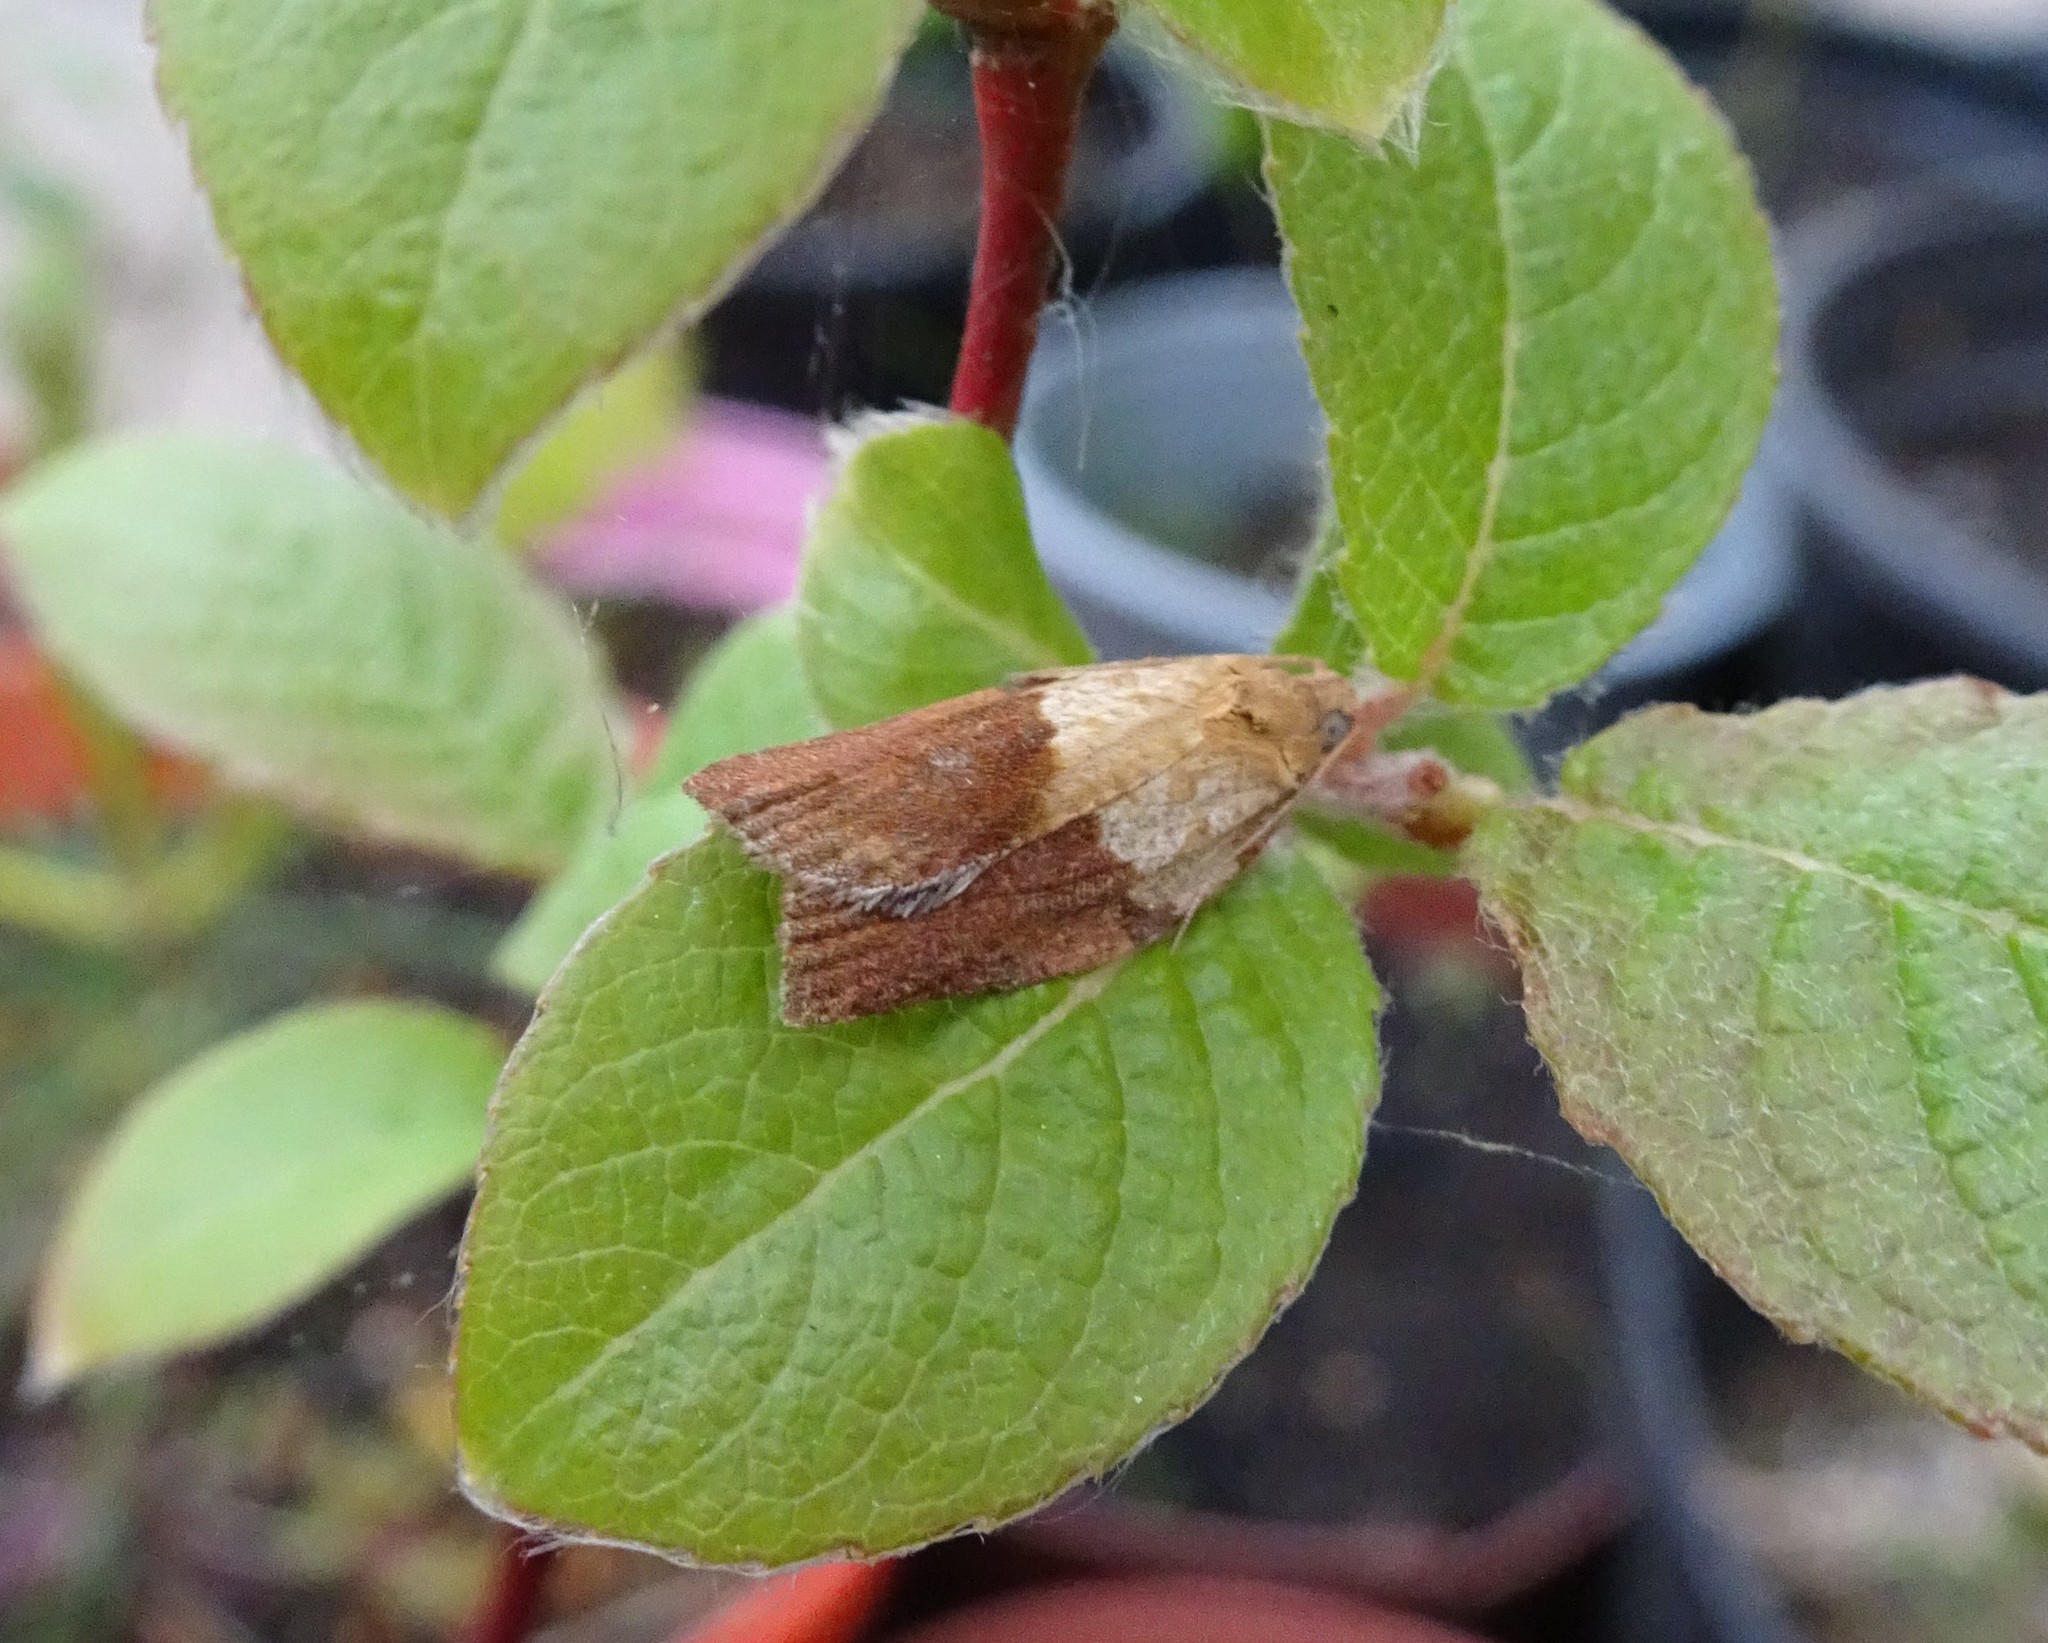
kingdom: Animalia
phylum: Arthropoda
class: Insecta
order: Lepidoptera
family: Tortricidae
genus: Epiphyas
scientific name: Epiphyas postvittana
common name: Light brown apple moth
